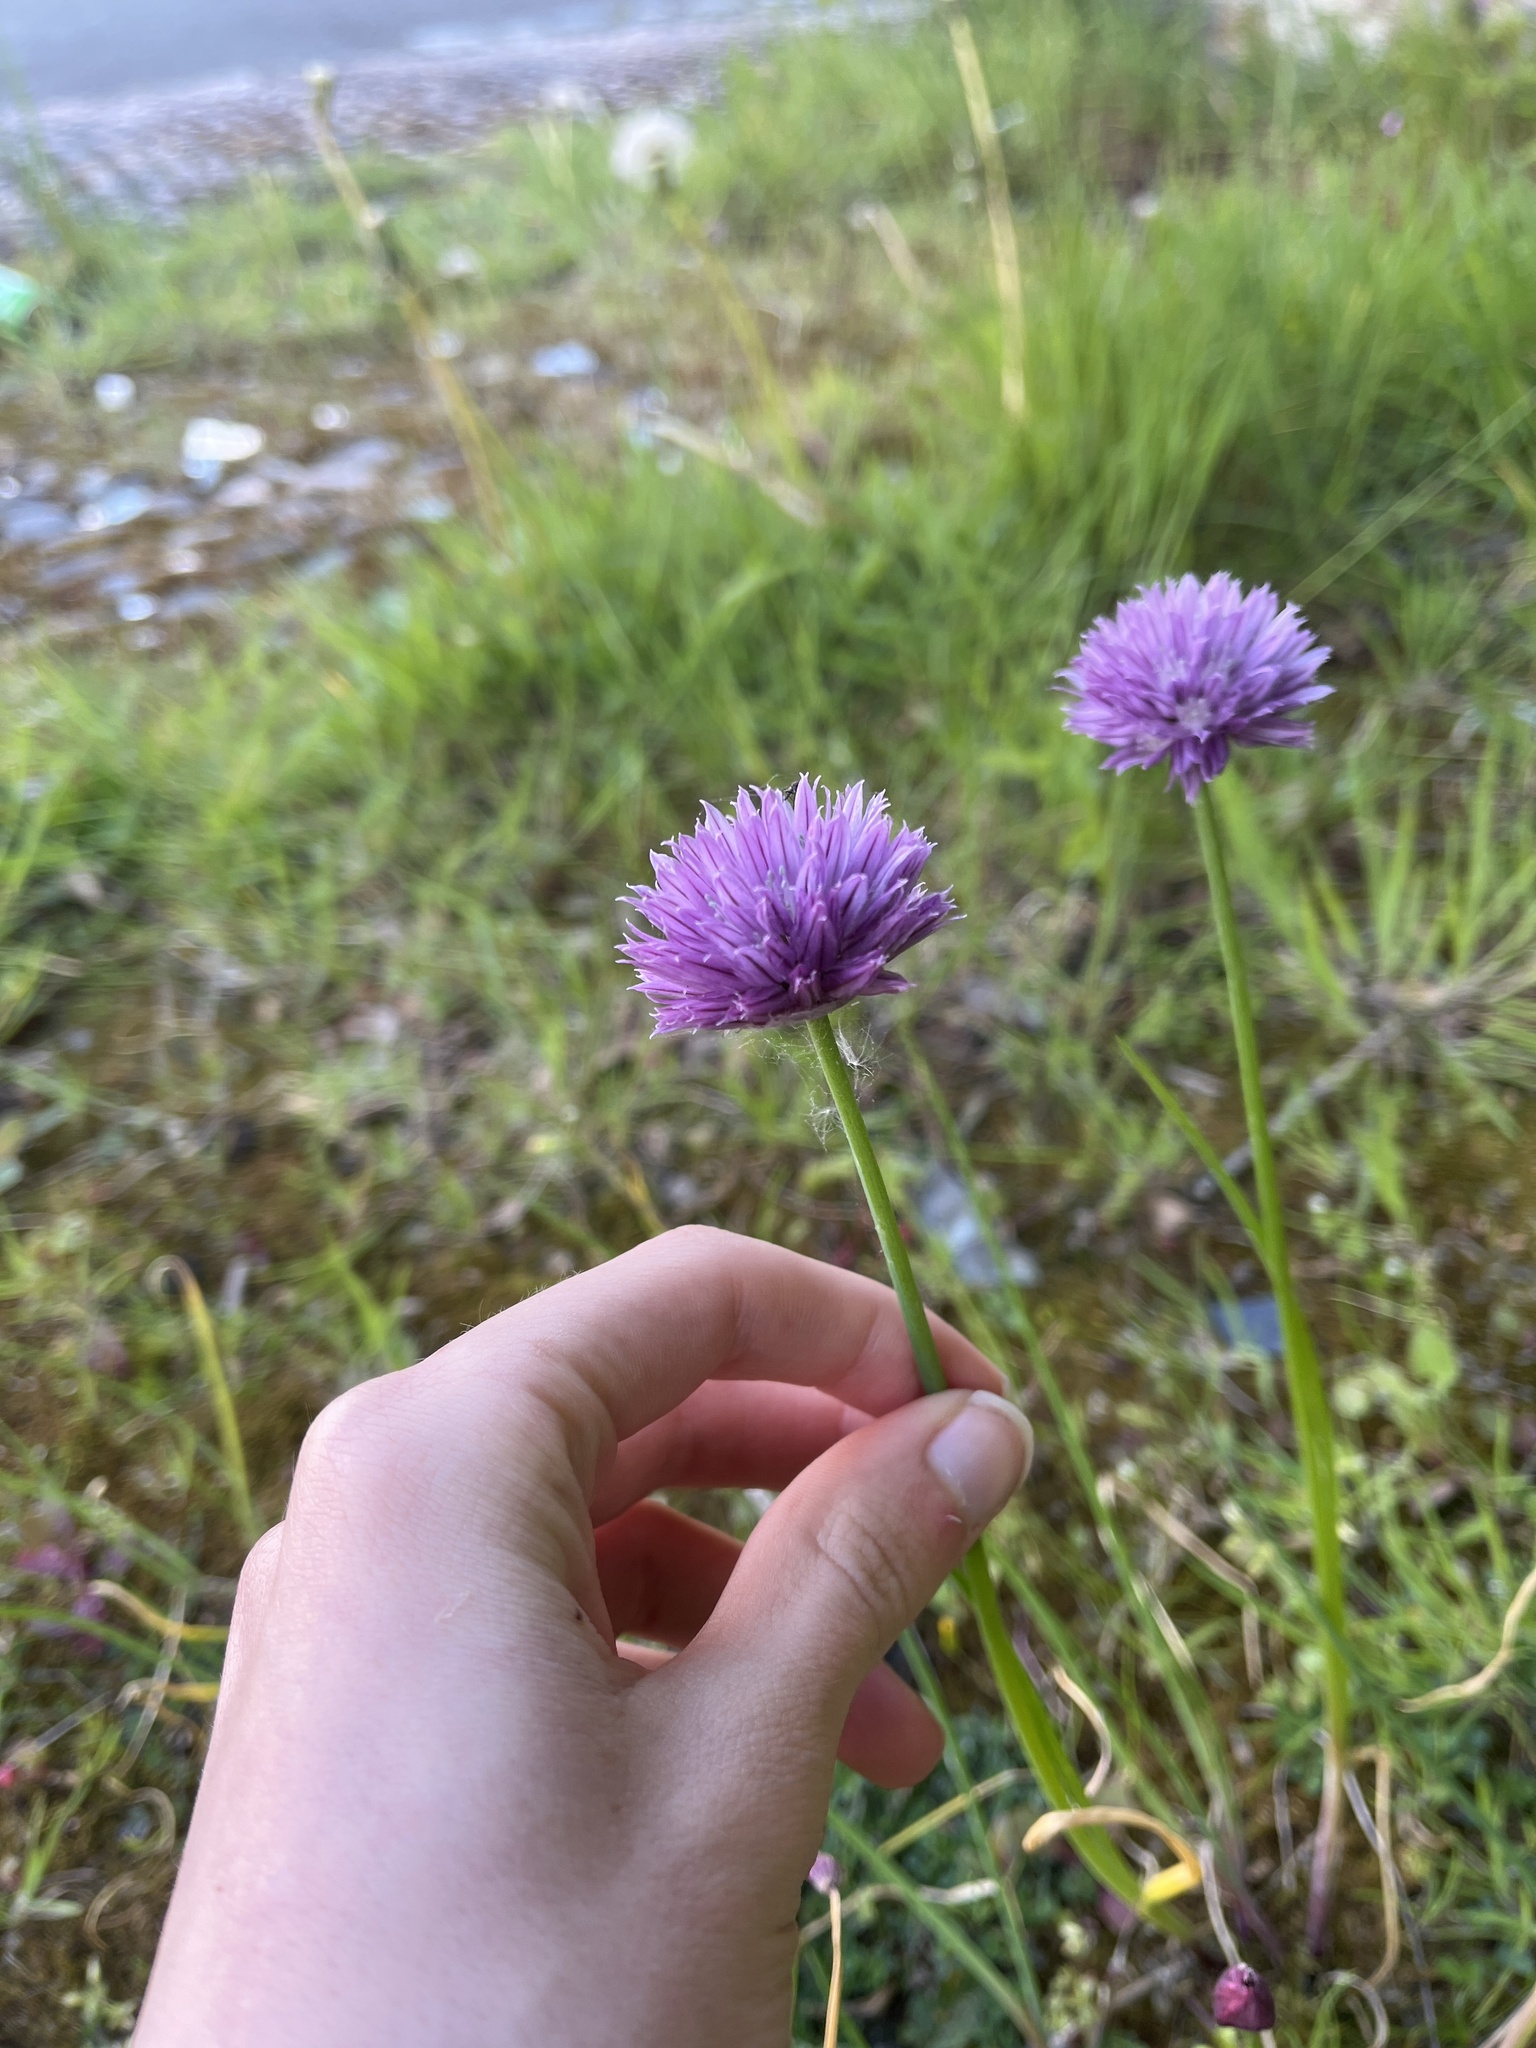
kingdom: Plantae
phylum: Tracheophyta
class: Liliopsida
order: Asparagales
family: Amaryllidaceae
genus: Allium
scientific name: Allium schoenoprasum
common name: Chives
